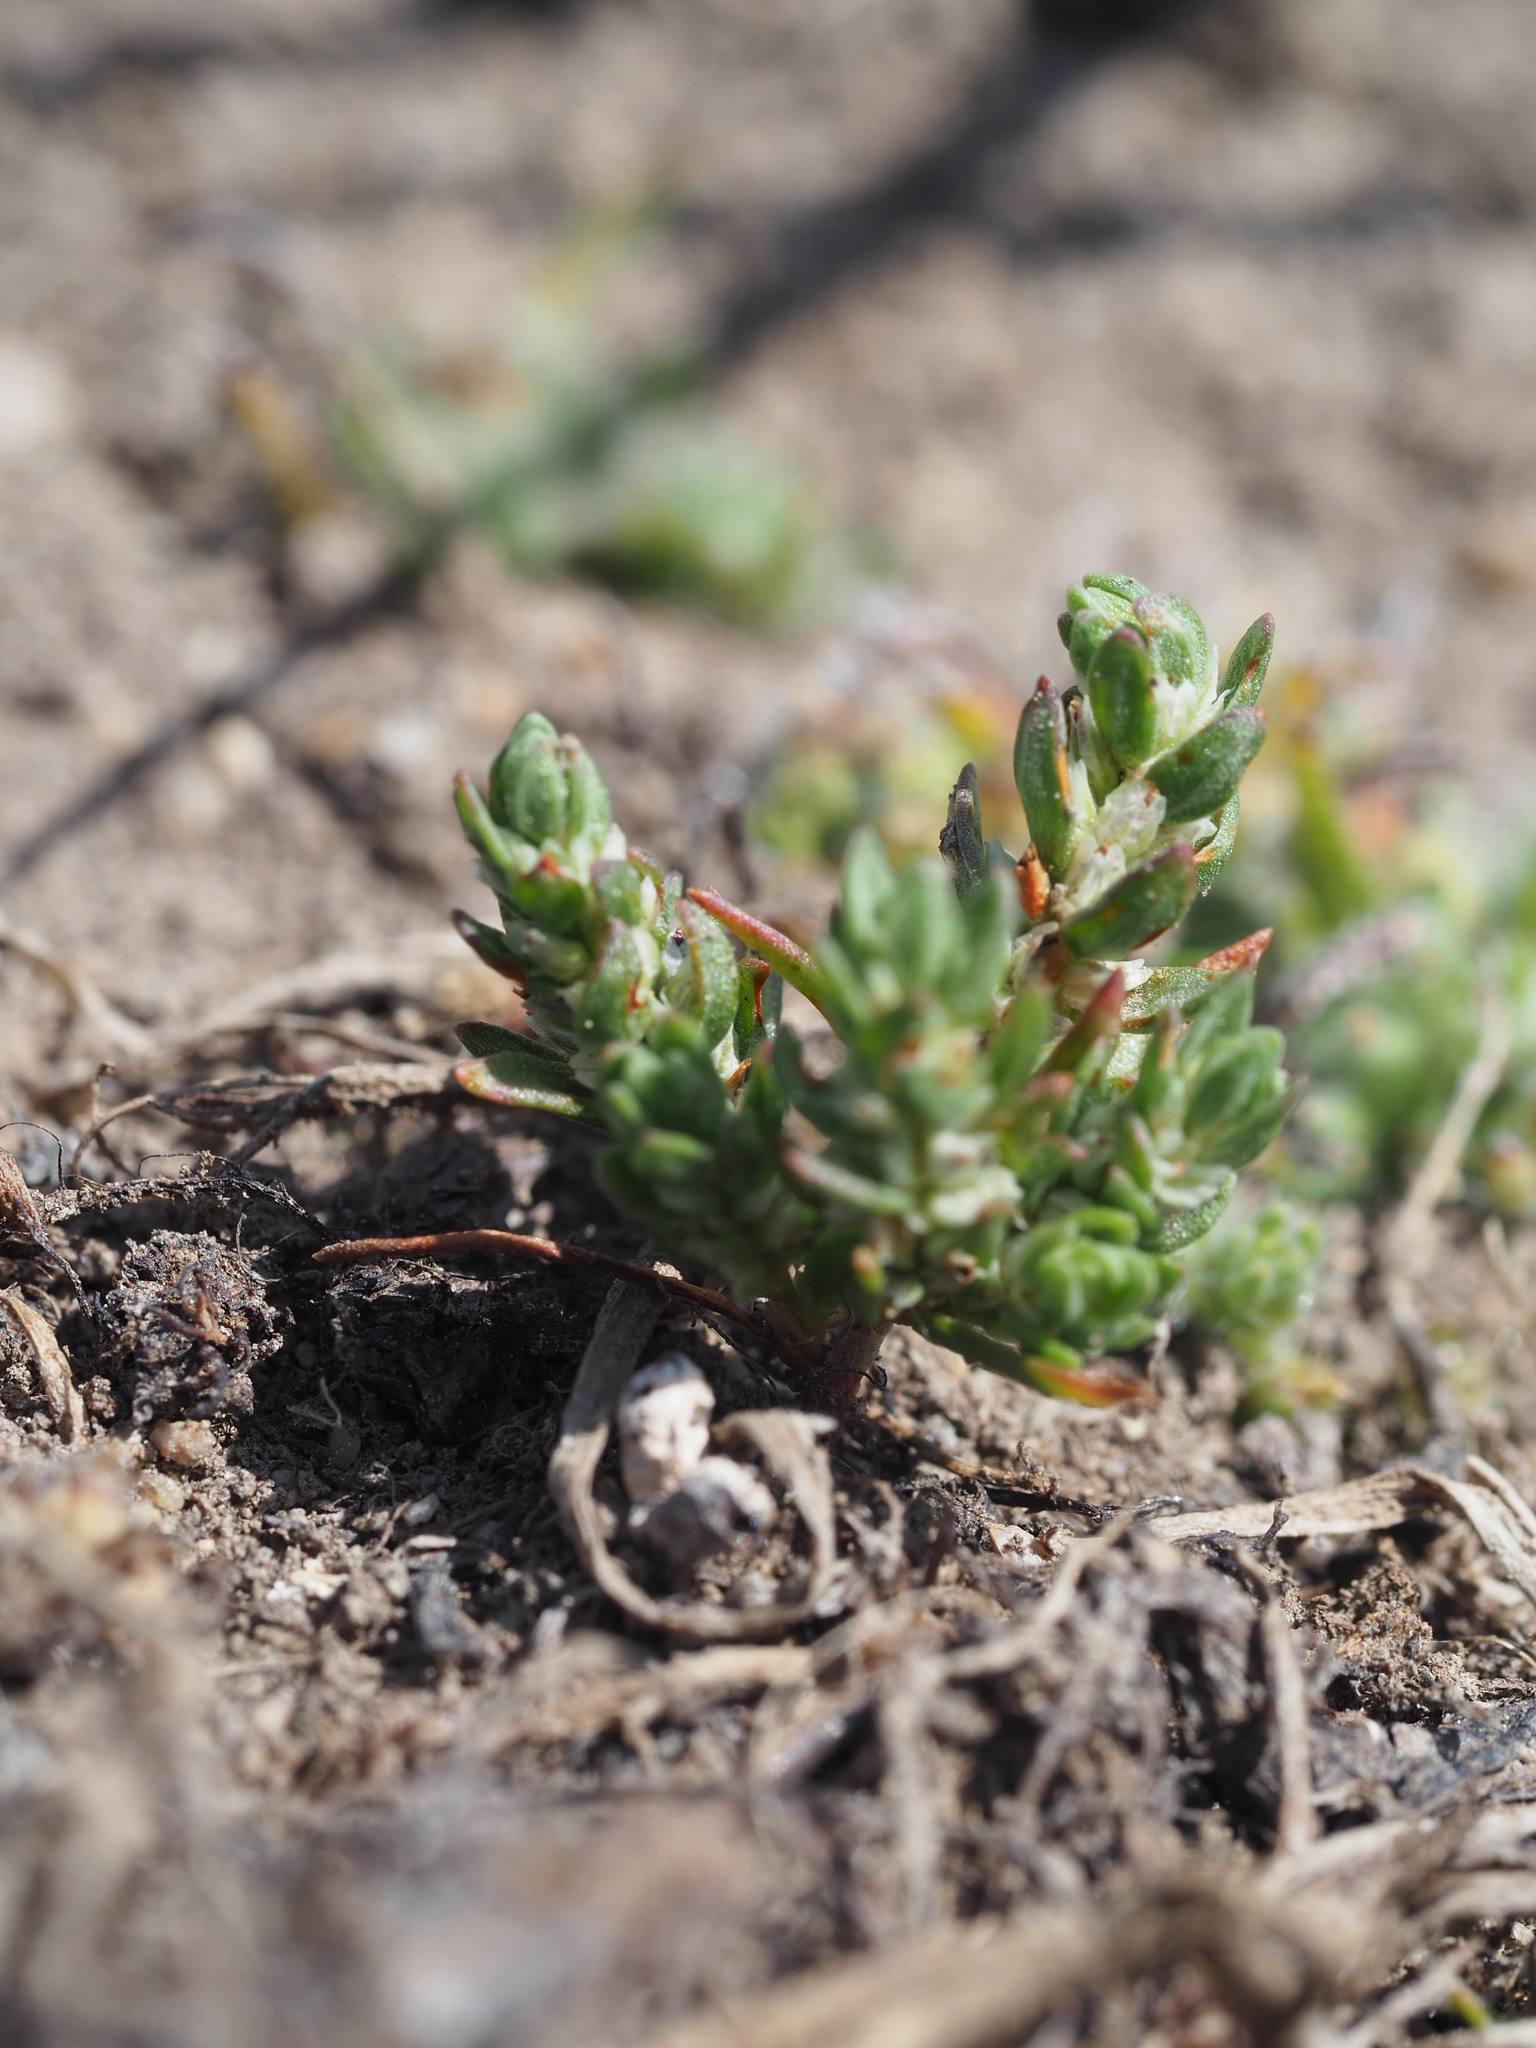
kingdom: Plantae
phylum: Tracheophyta
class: Magnoliopsida
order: Caryophyllales
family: Polygonaceae
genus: Polygonum
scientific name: Polygonum kelloggii
